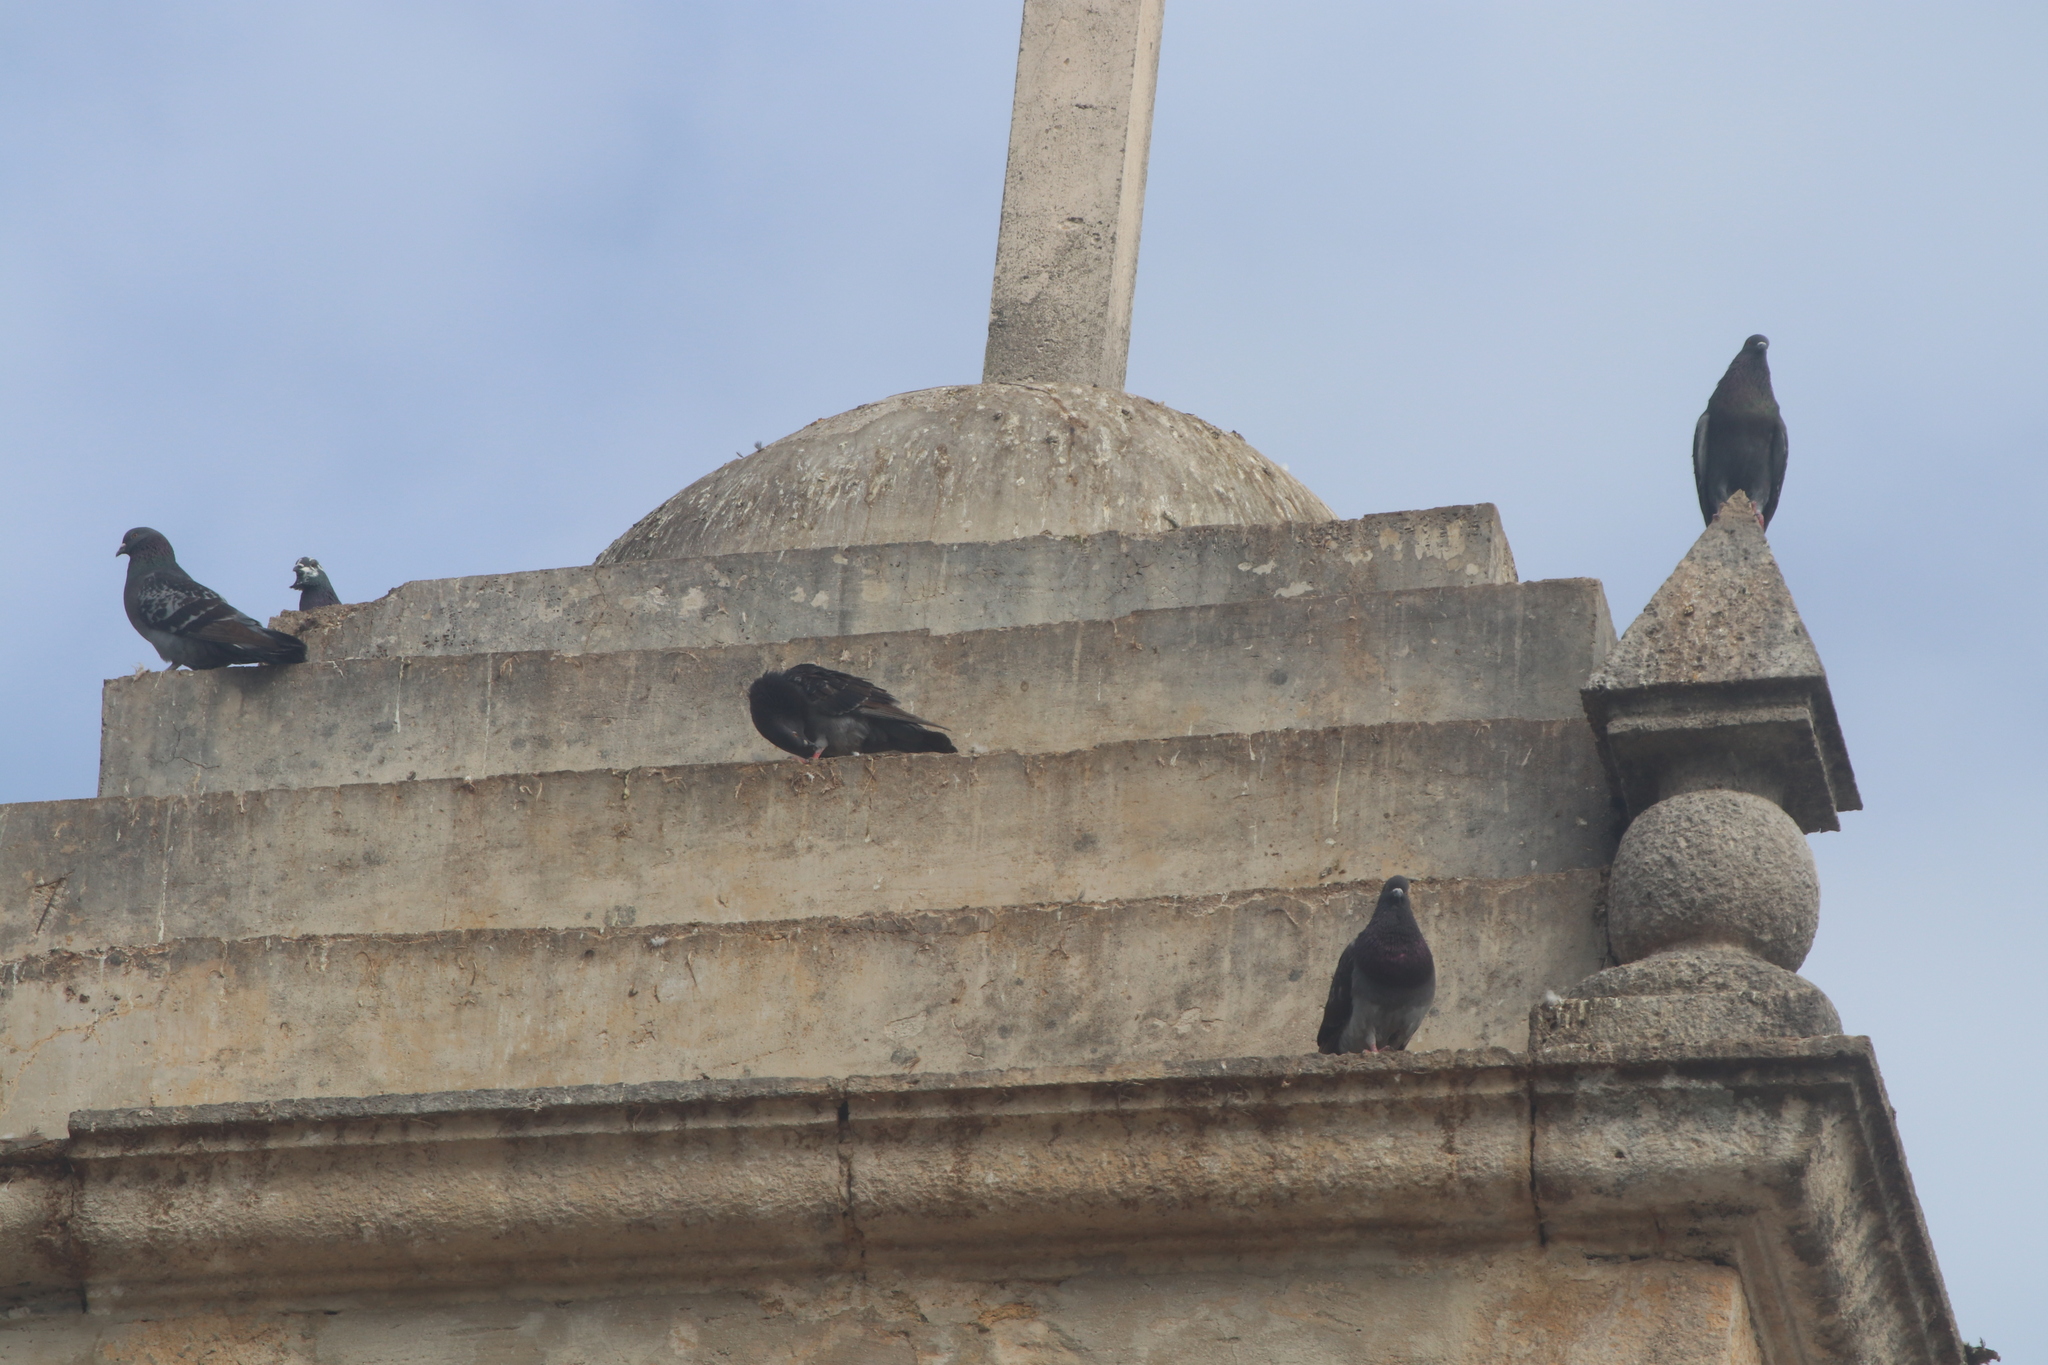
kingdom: Animalia
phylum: Chordata
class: Aves
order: Columbiformes
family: Columbidae
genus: Columba
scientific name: Columba livia
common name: Rock pigeon
